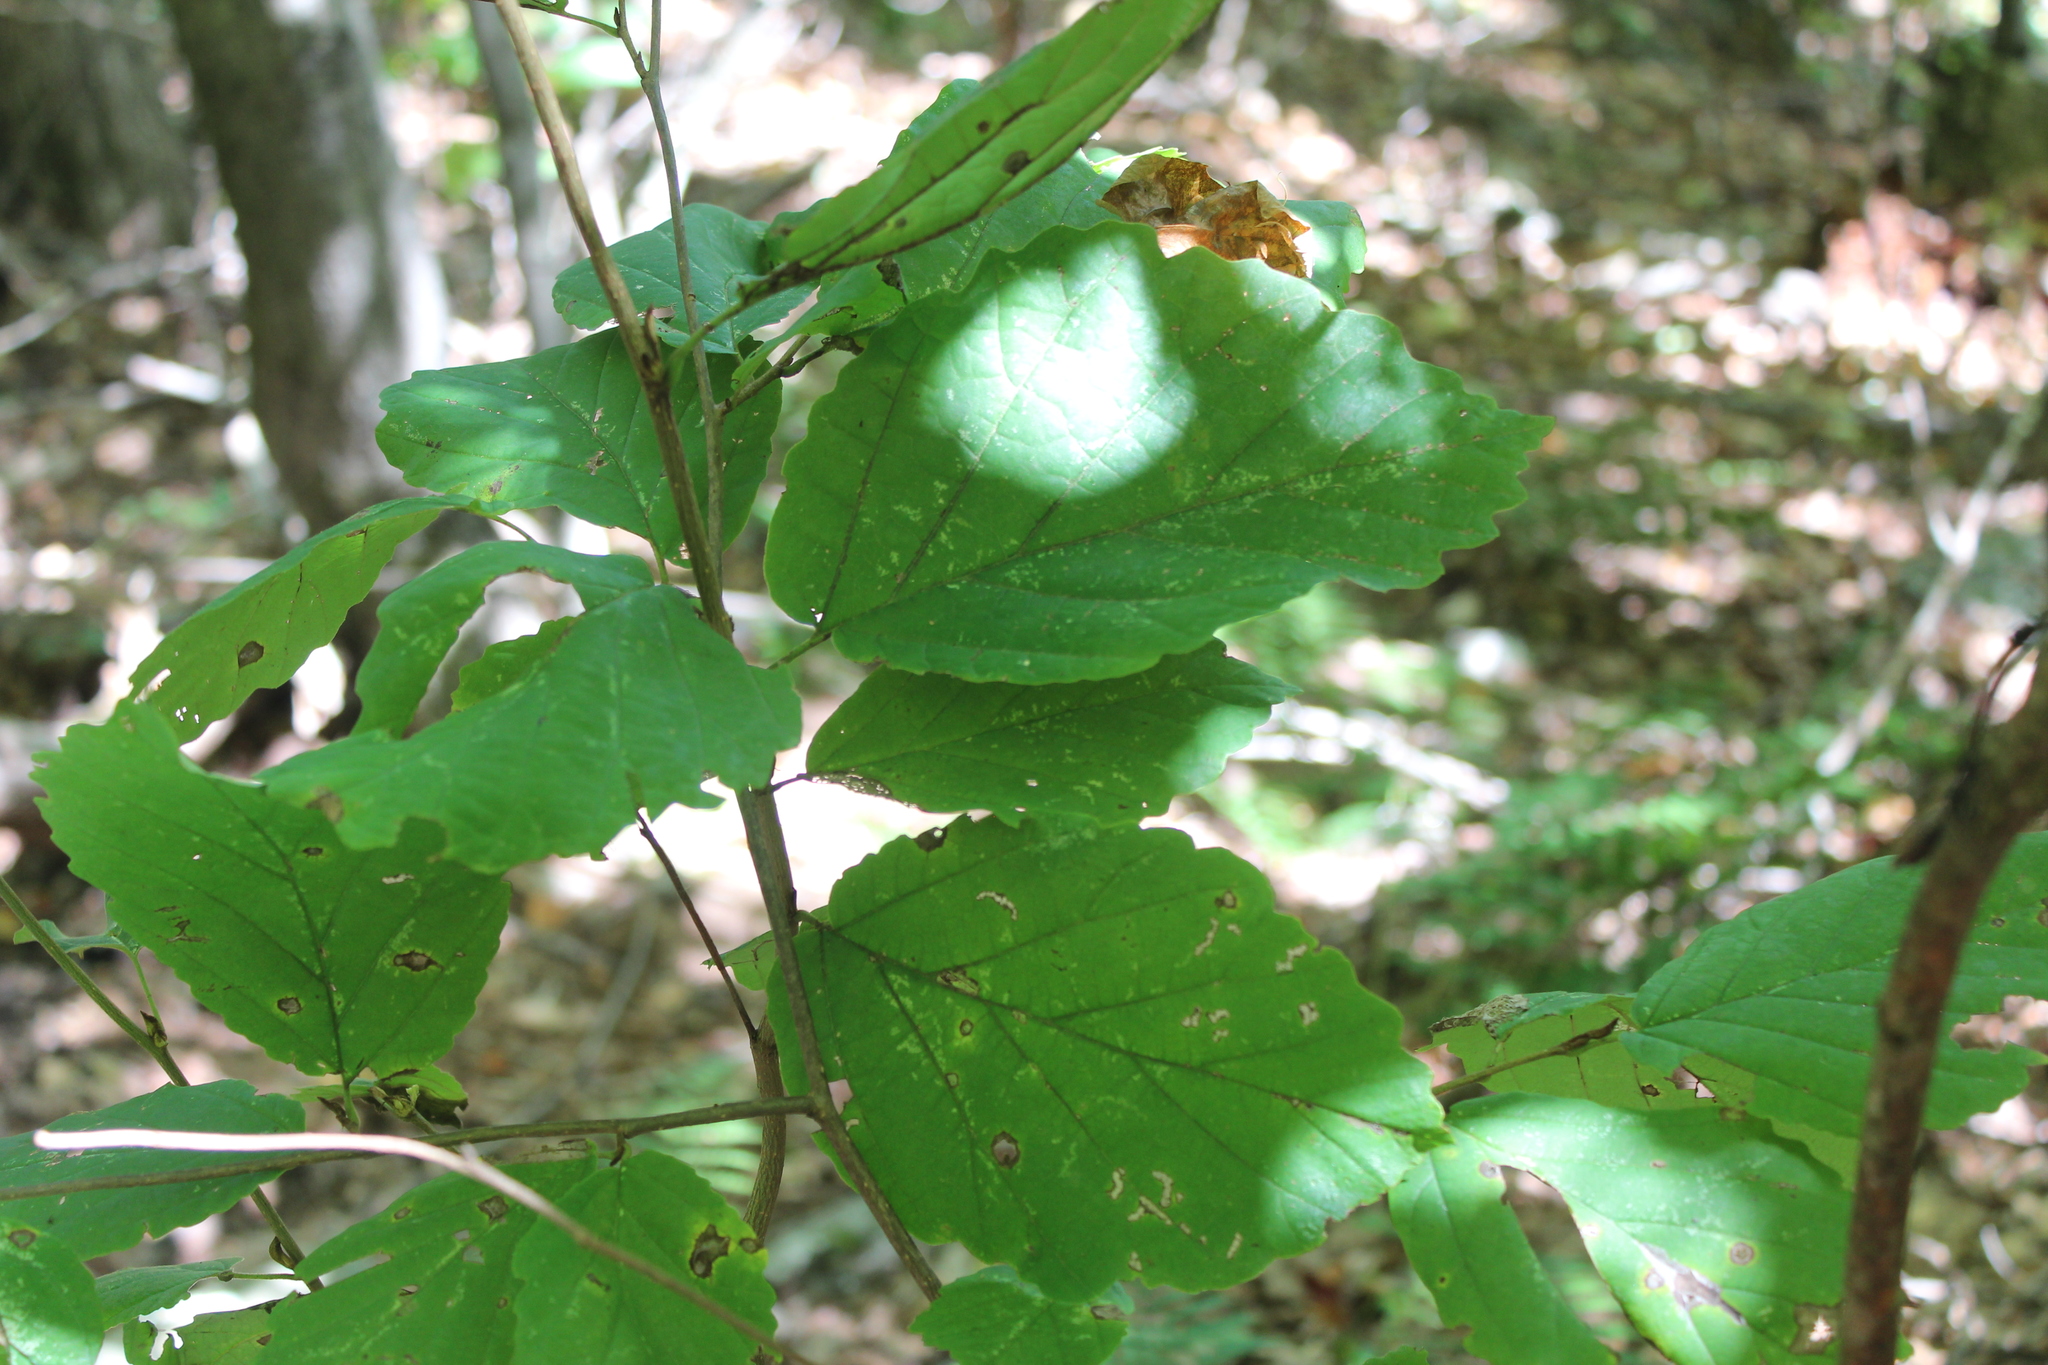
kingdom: Plantae
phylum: Tracheophyta
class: Magnoliopsida
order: Saxifragales
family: Hamamelidaceae
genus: Hamamelis
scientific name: Hamamelis virginiana
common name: Witch-hazel
